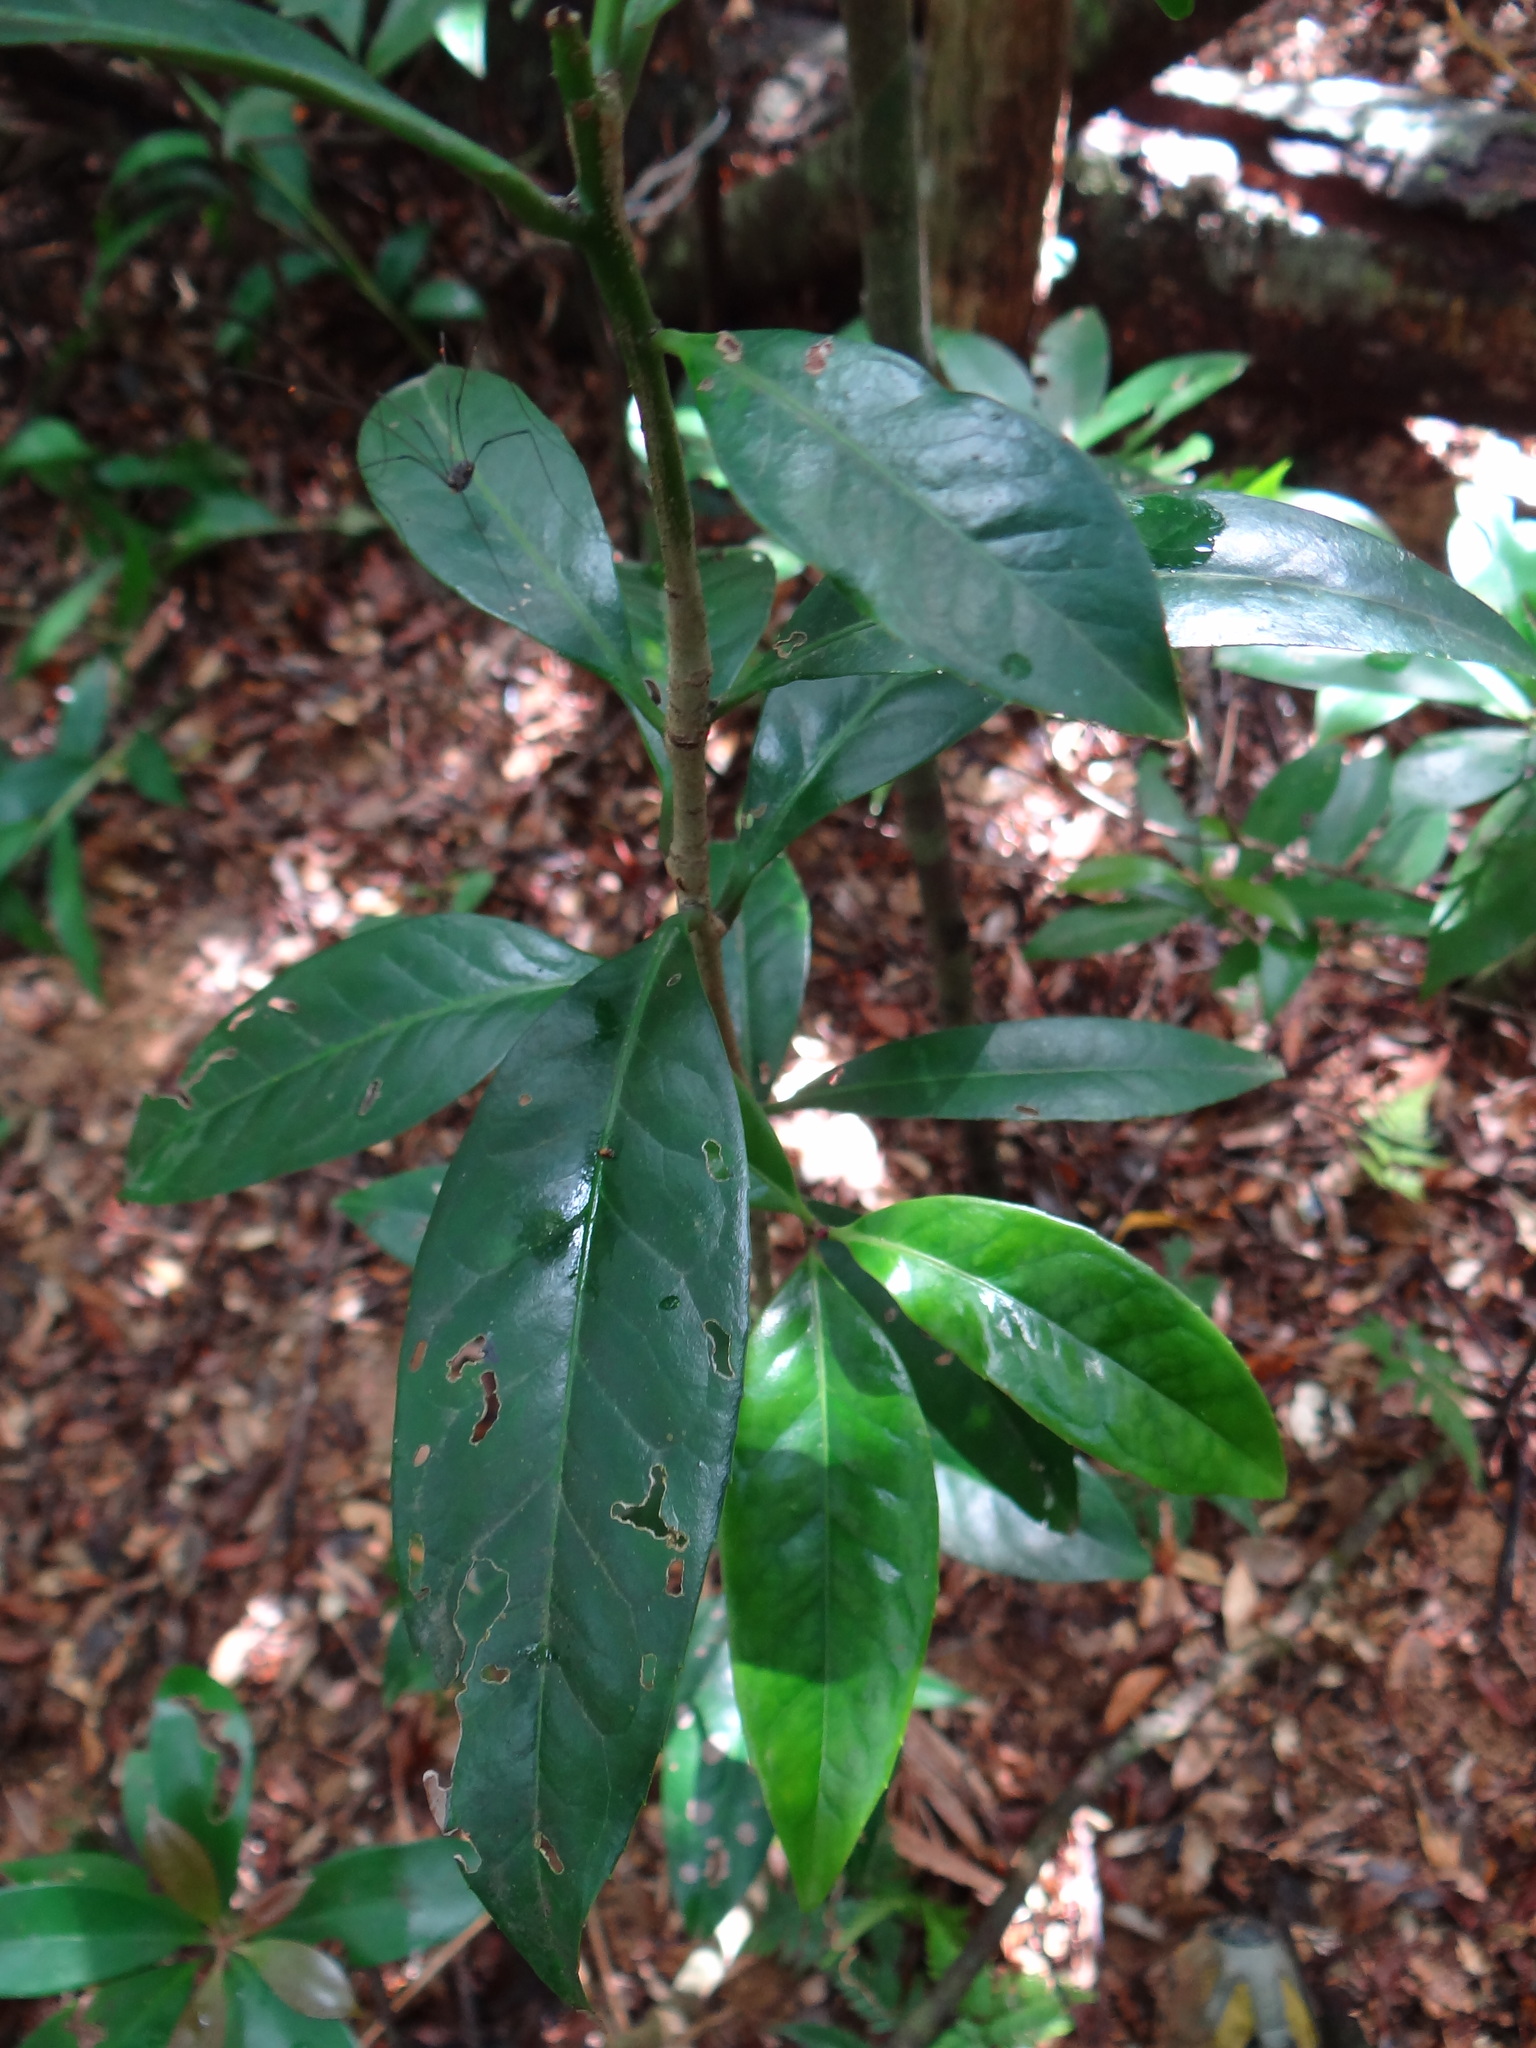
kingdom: Plantae
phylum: Tracheophyta
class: Magnoliopsida
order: Ericales
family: Symplocaceae
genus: Symplocos
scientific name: Symplocos theifolia
